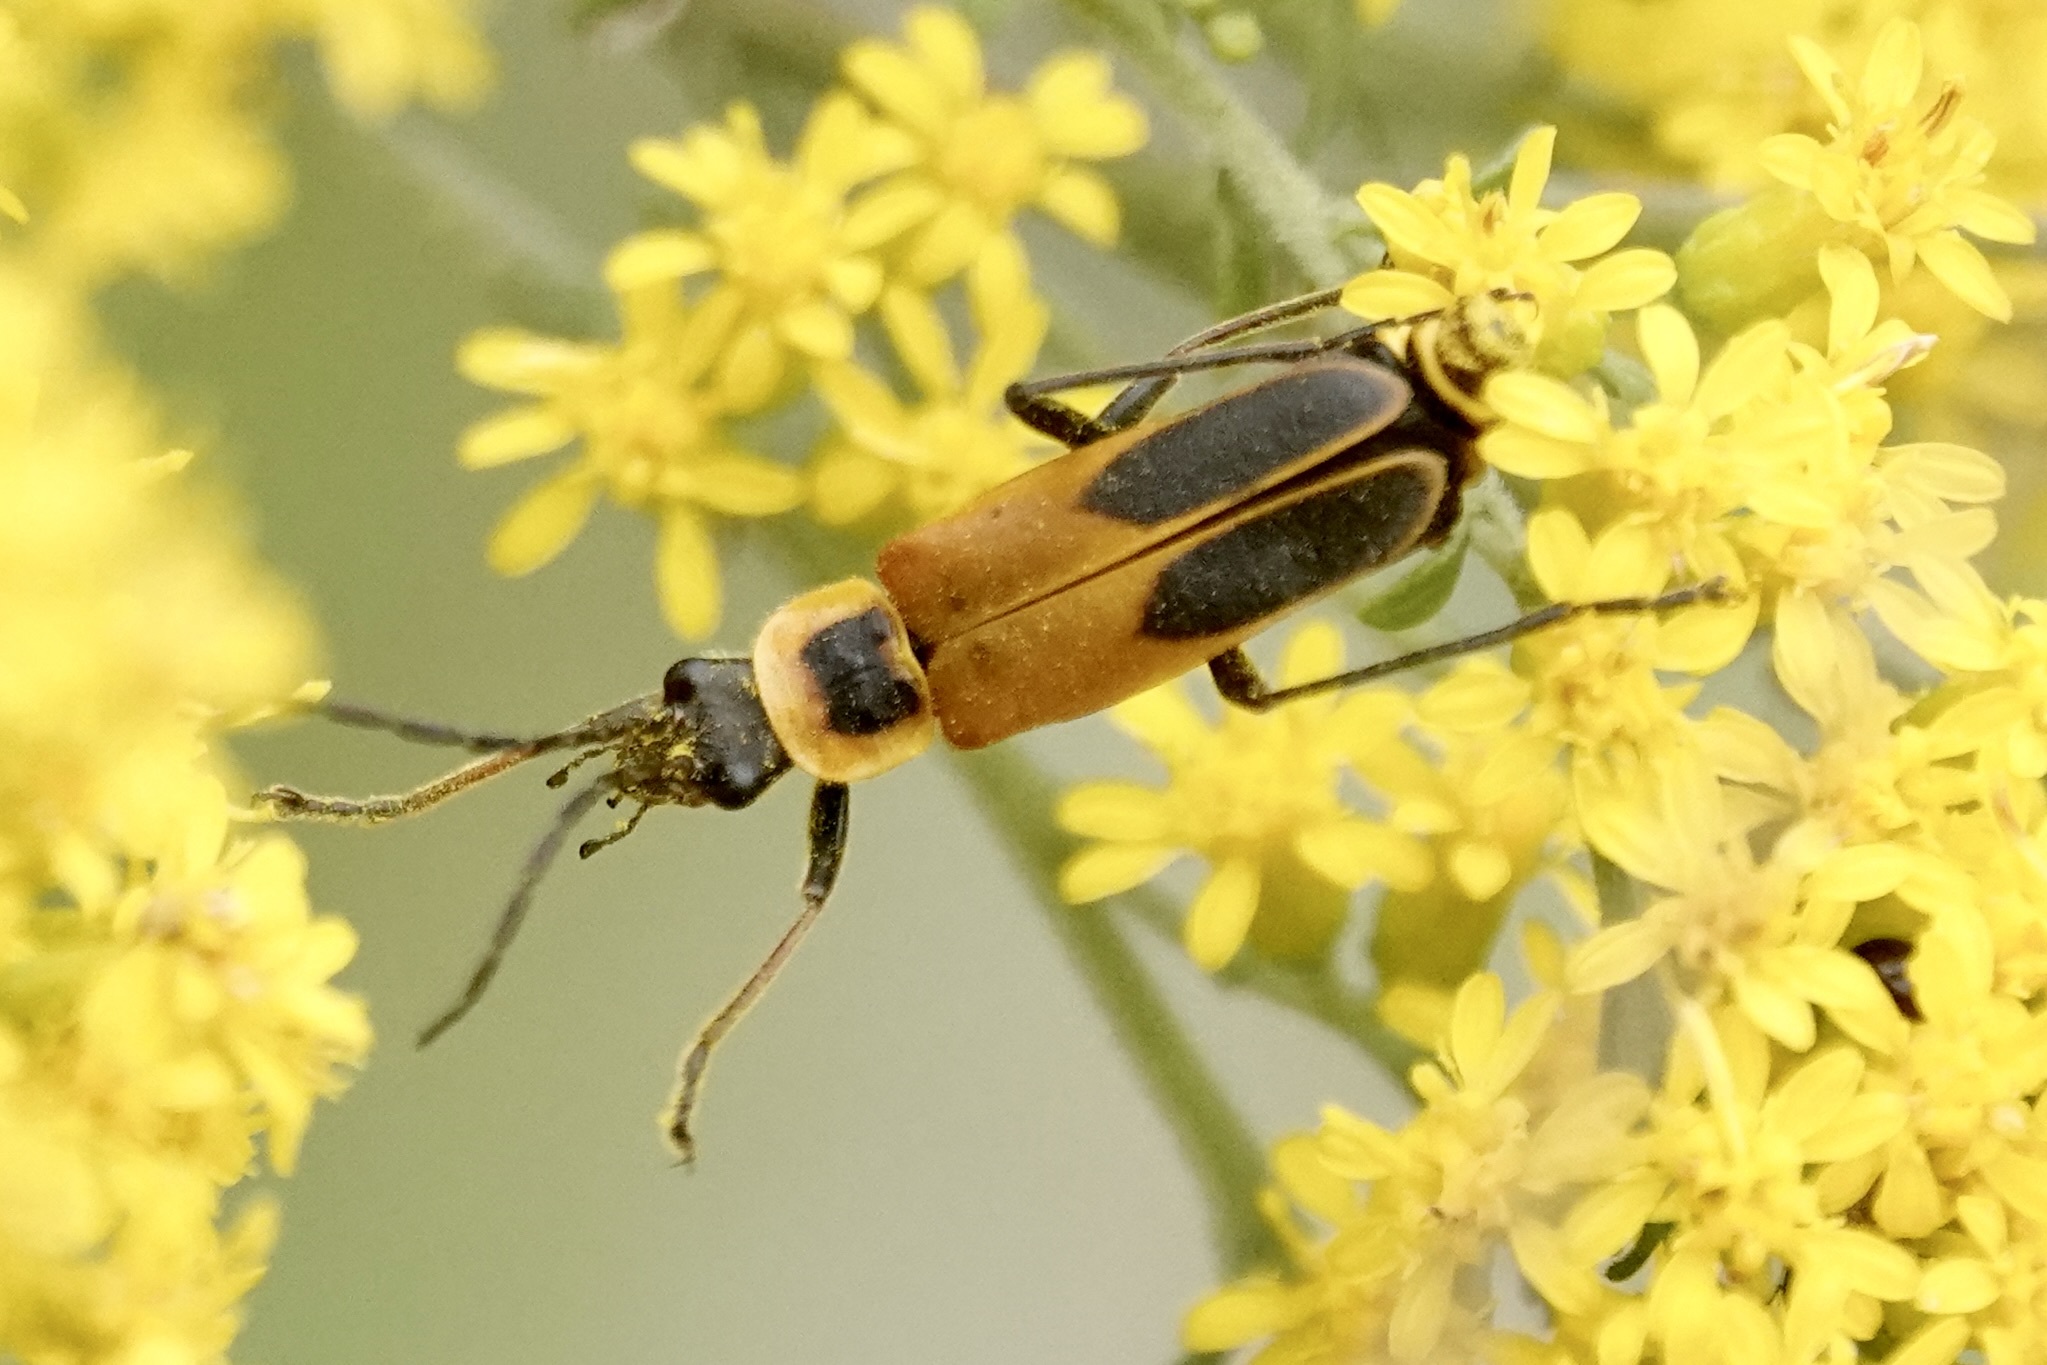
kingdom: Animalia
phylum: Arthropoda
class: Insecta
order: Coleoptera
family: Cantharidae
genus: Chauliognathus
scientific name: Chauliognathus pensylvanicus
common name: Goldenrod soldier beetle
